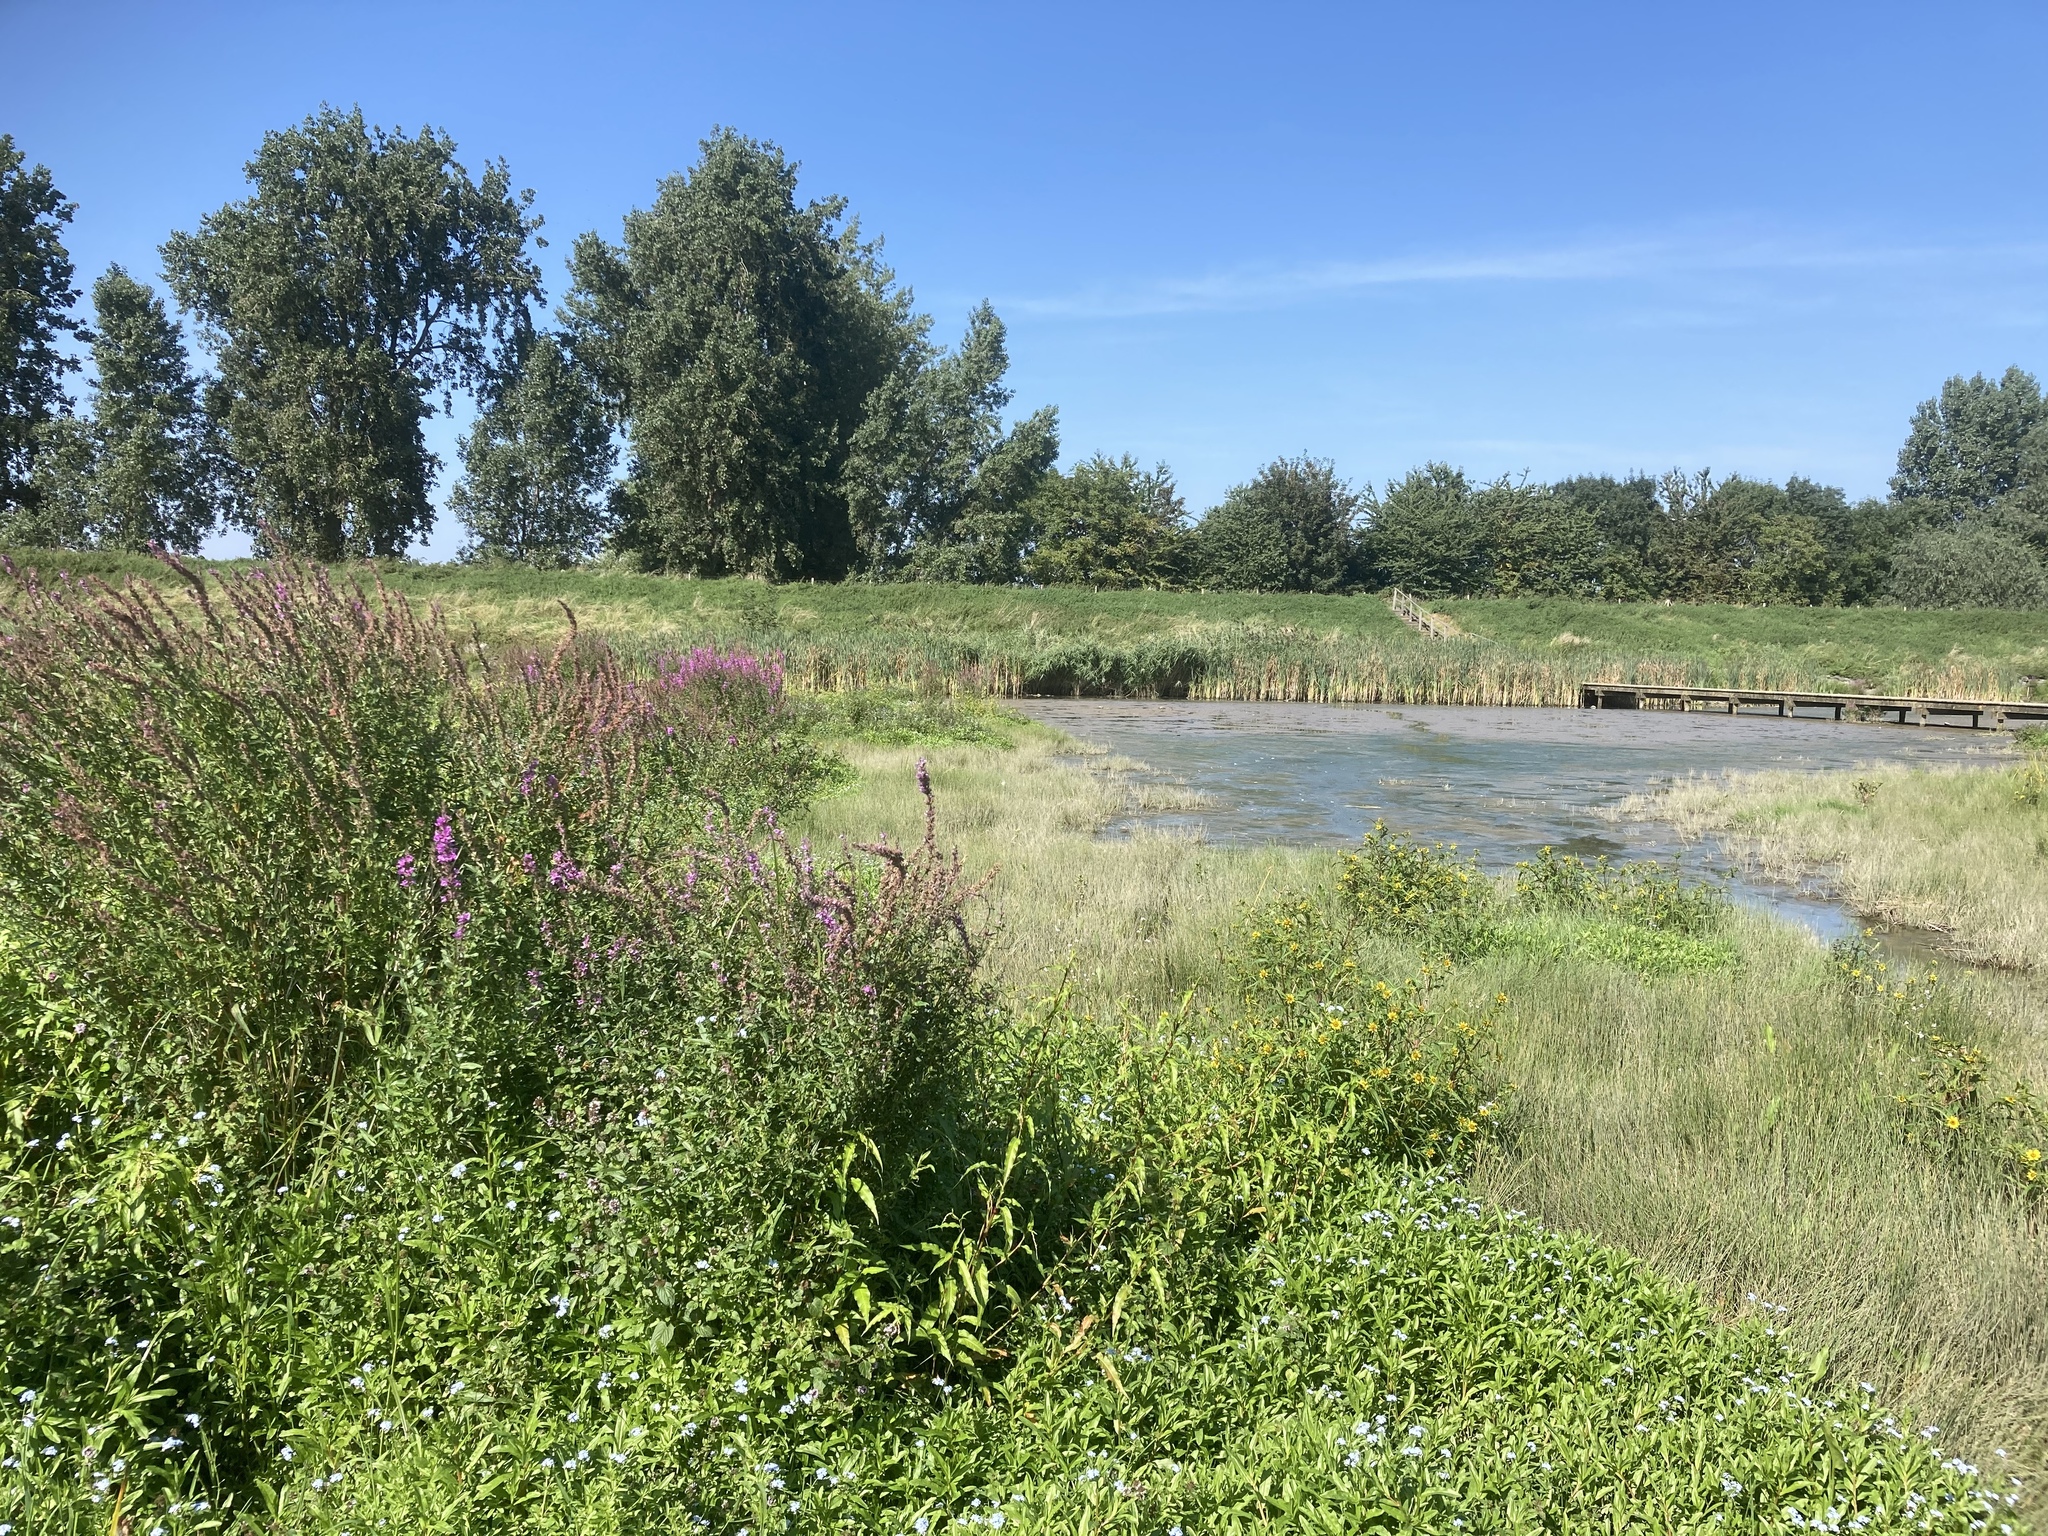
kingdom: Plantae
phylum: Tracheophyta
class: Magnoliopsida
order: Myrtales
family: Lythraceae
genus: Lythrum
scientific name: Lythrum salicaria
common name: Purple loosestrife
